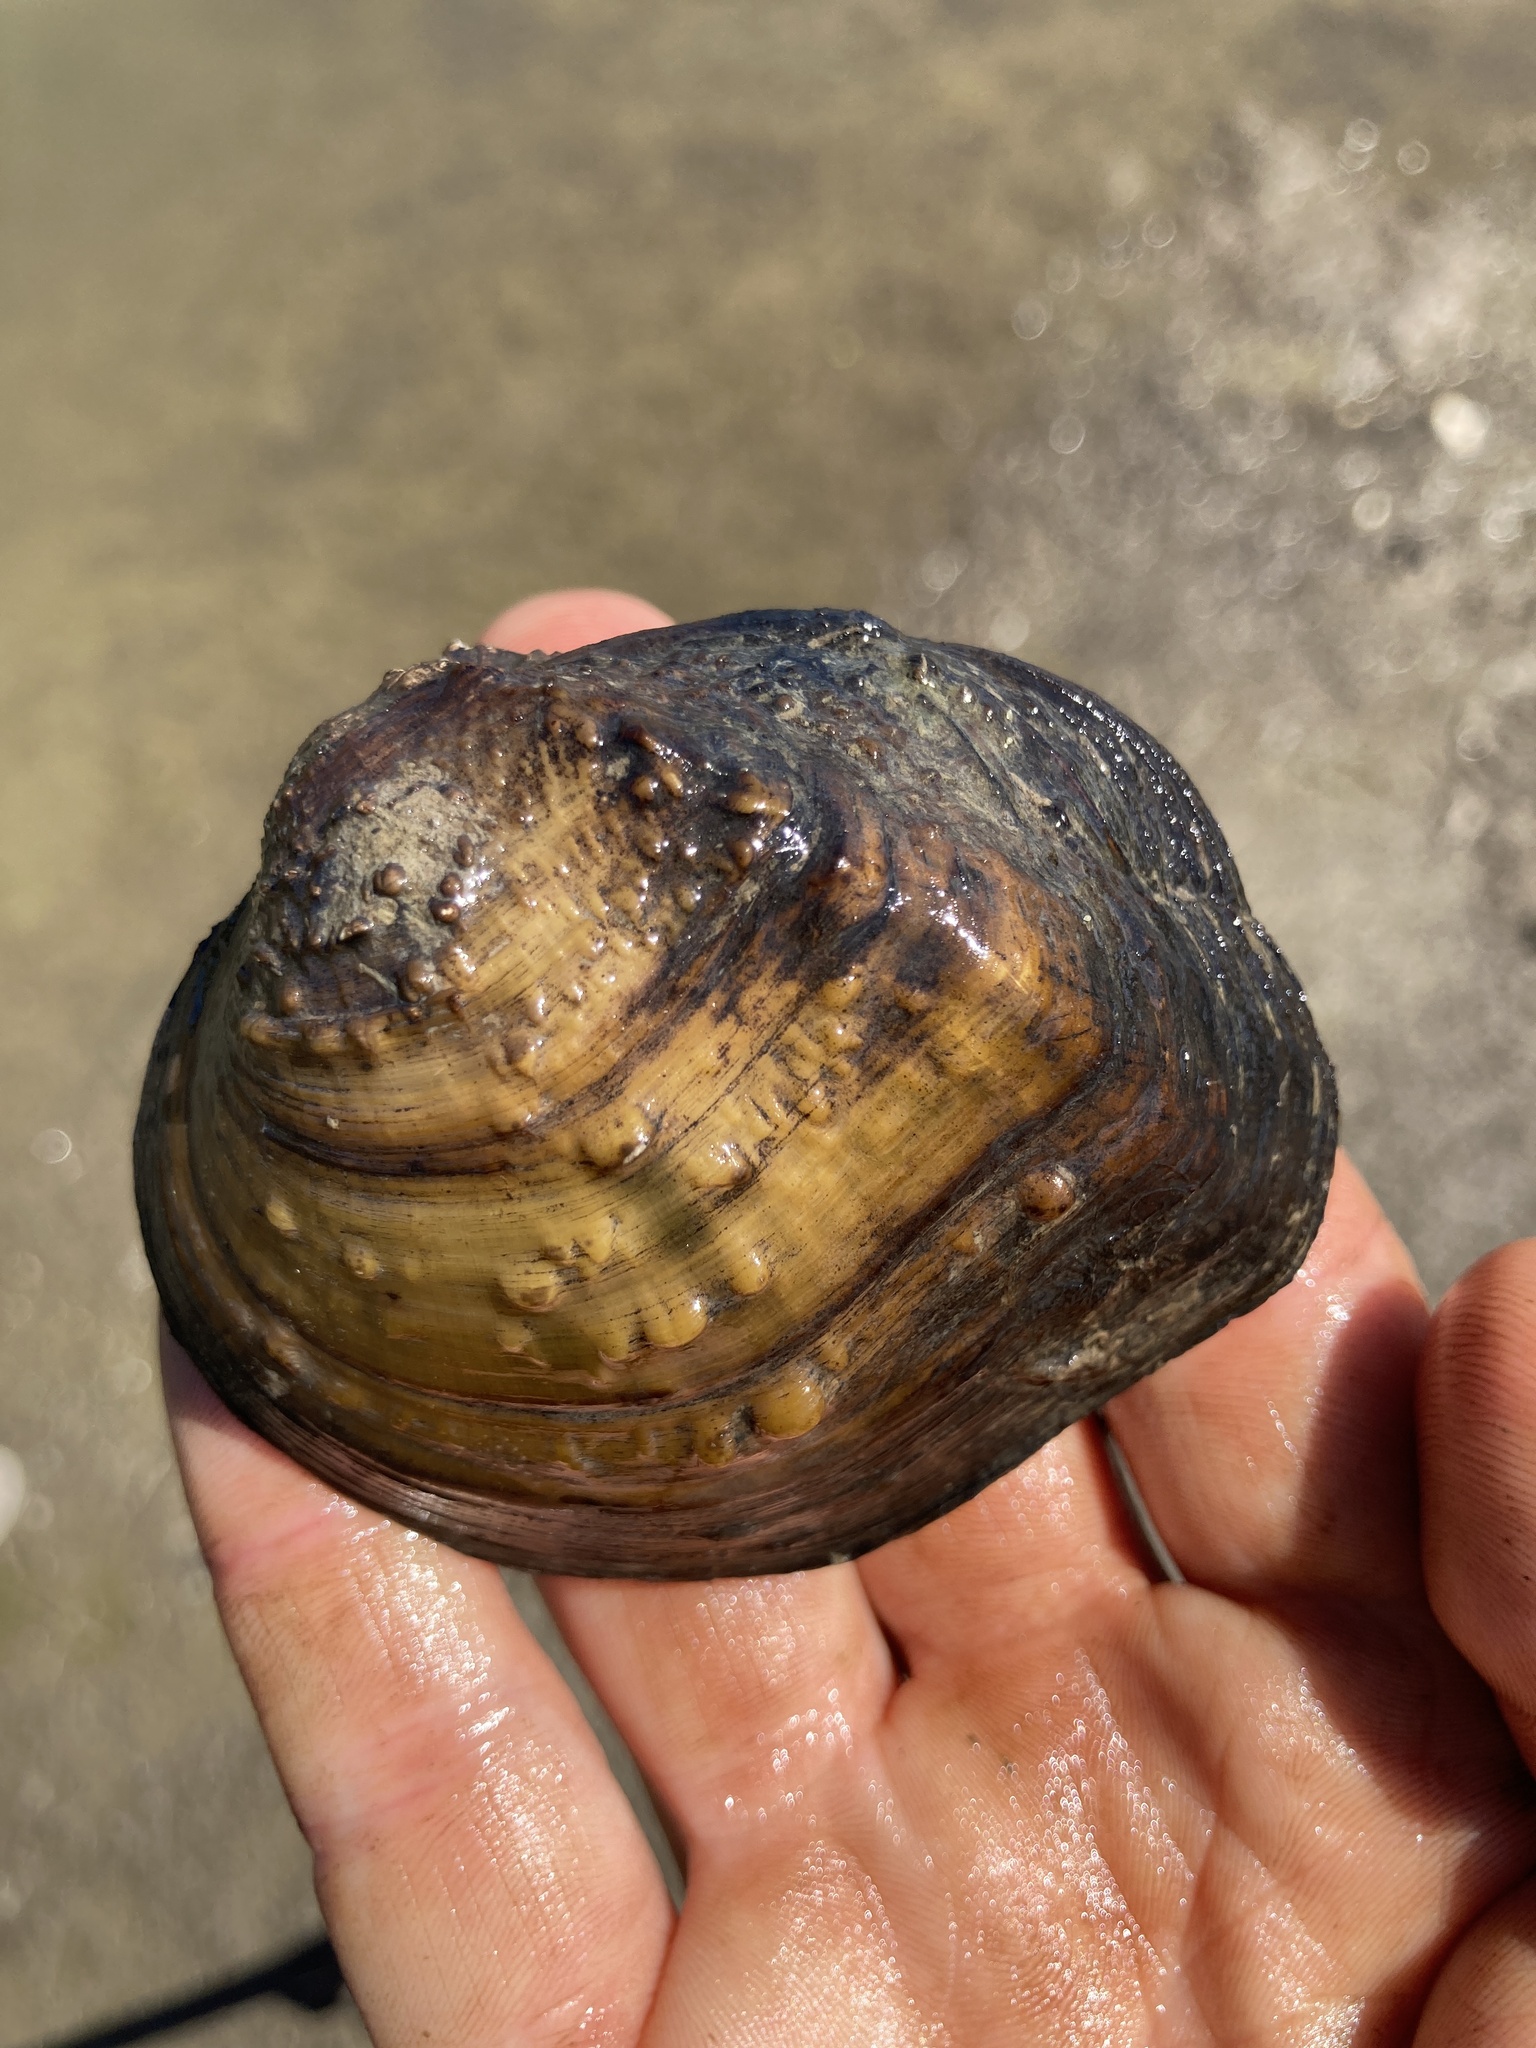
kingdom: Animalia
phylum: Mollusca
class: Bivalvia
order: Unionida
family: Unionidae
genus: Quadrula
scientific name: Quadrula quadrula
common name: Mapleleaf
